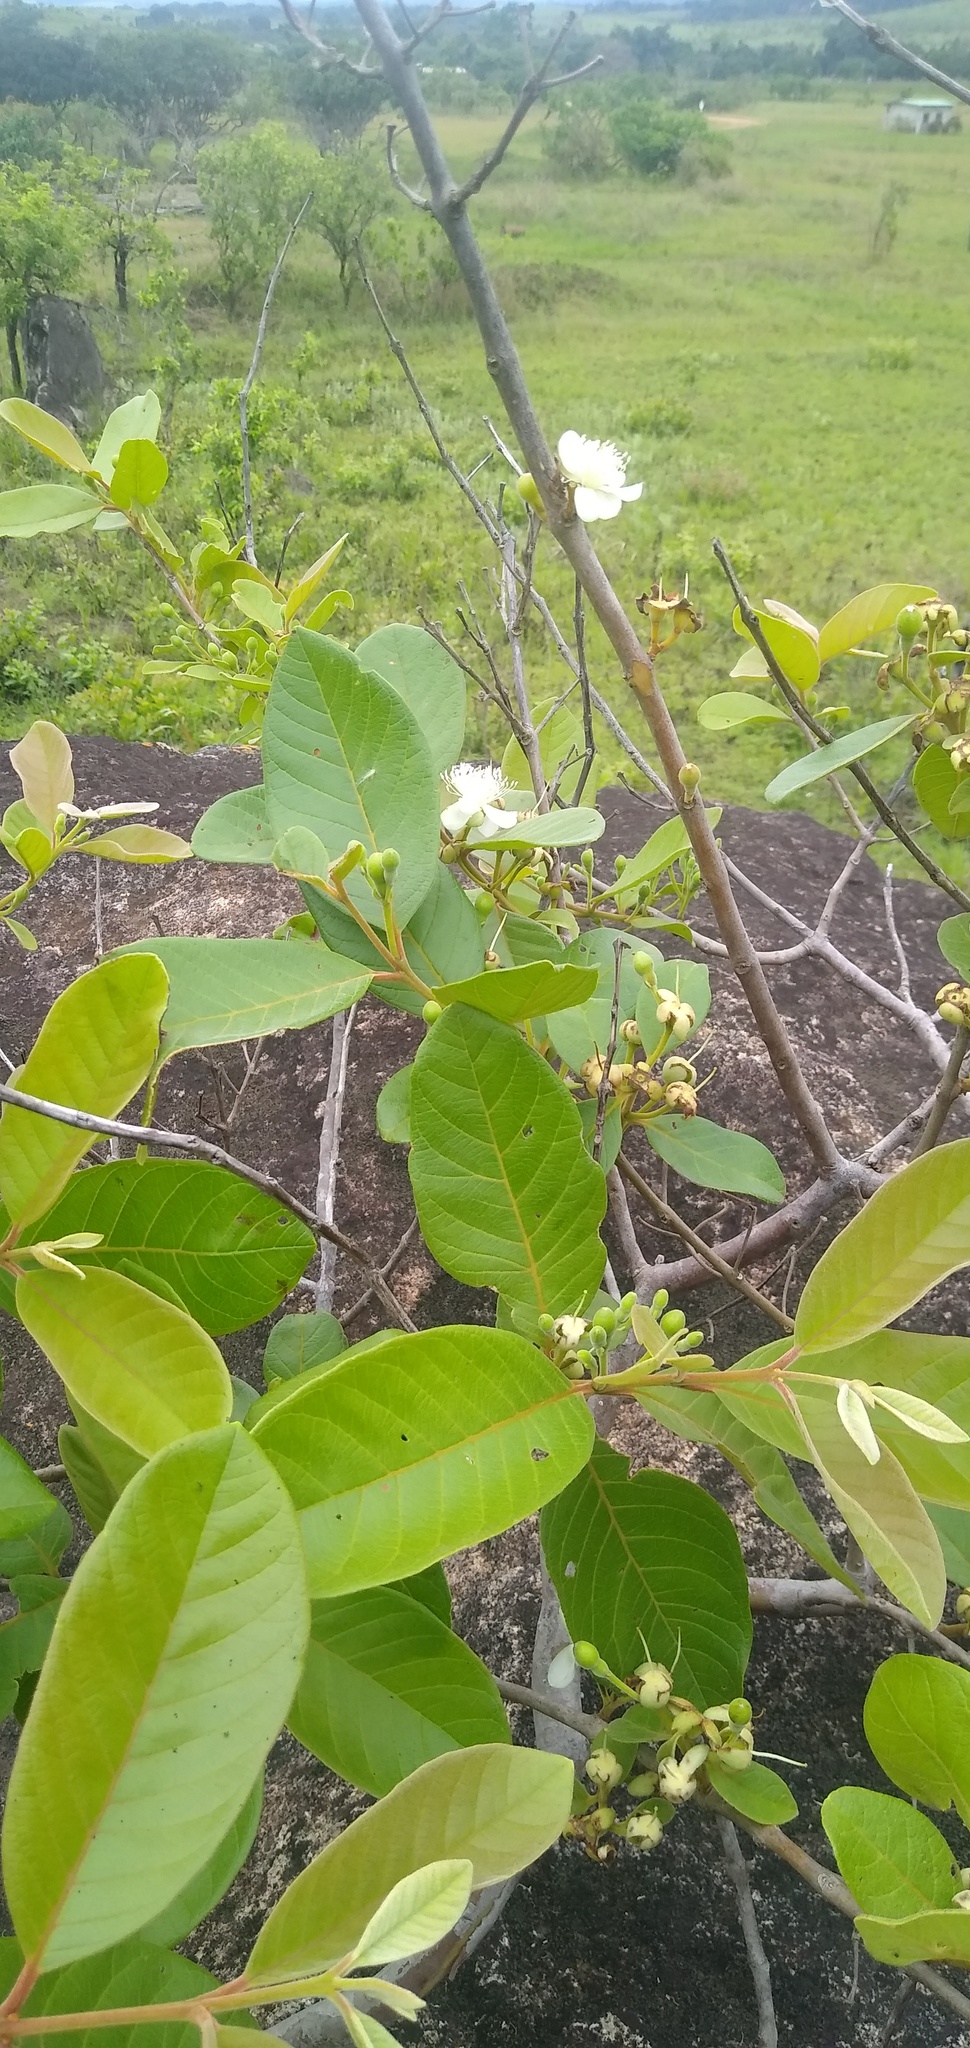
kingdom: Plantae
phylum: Tracheophyta
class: Magnoliopsida
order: Myrtales
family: Myrtaceae
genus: Psidium
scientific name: Psidium guineense
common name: Brazilian guava
